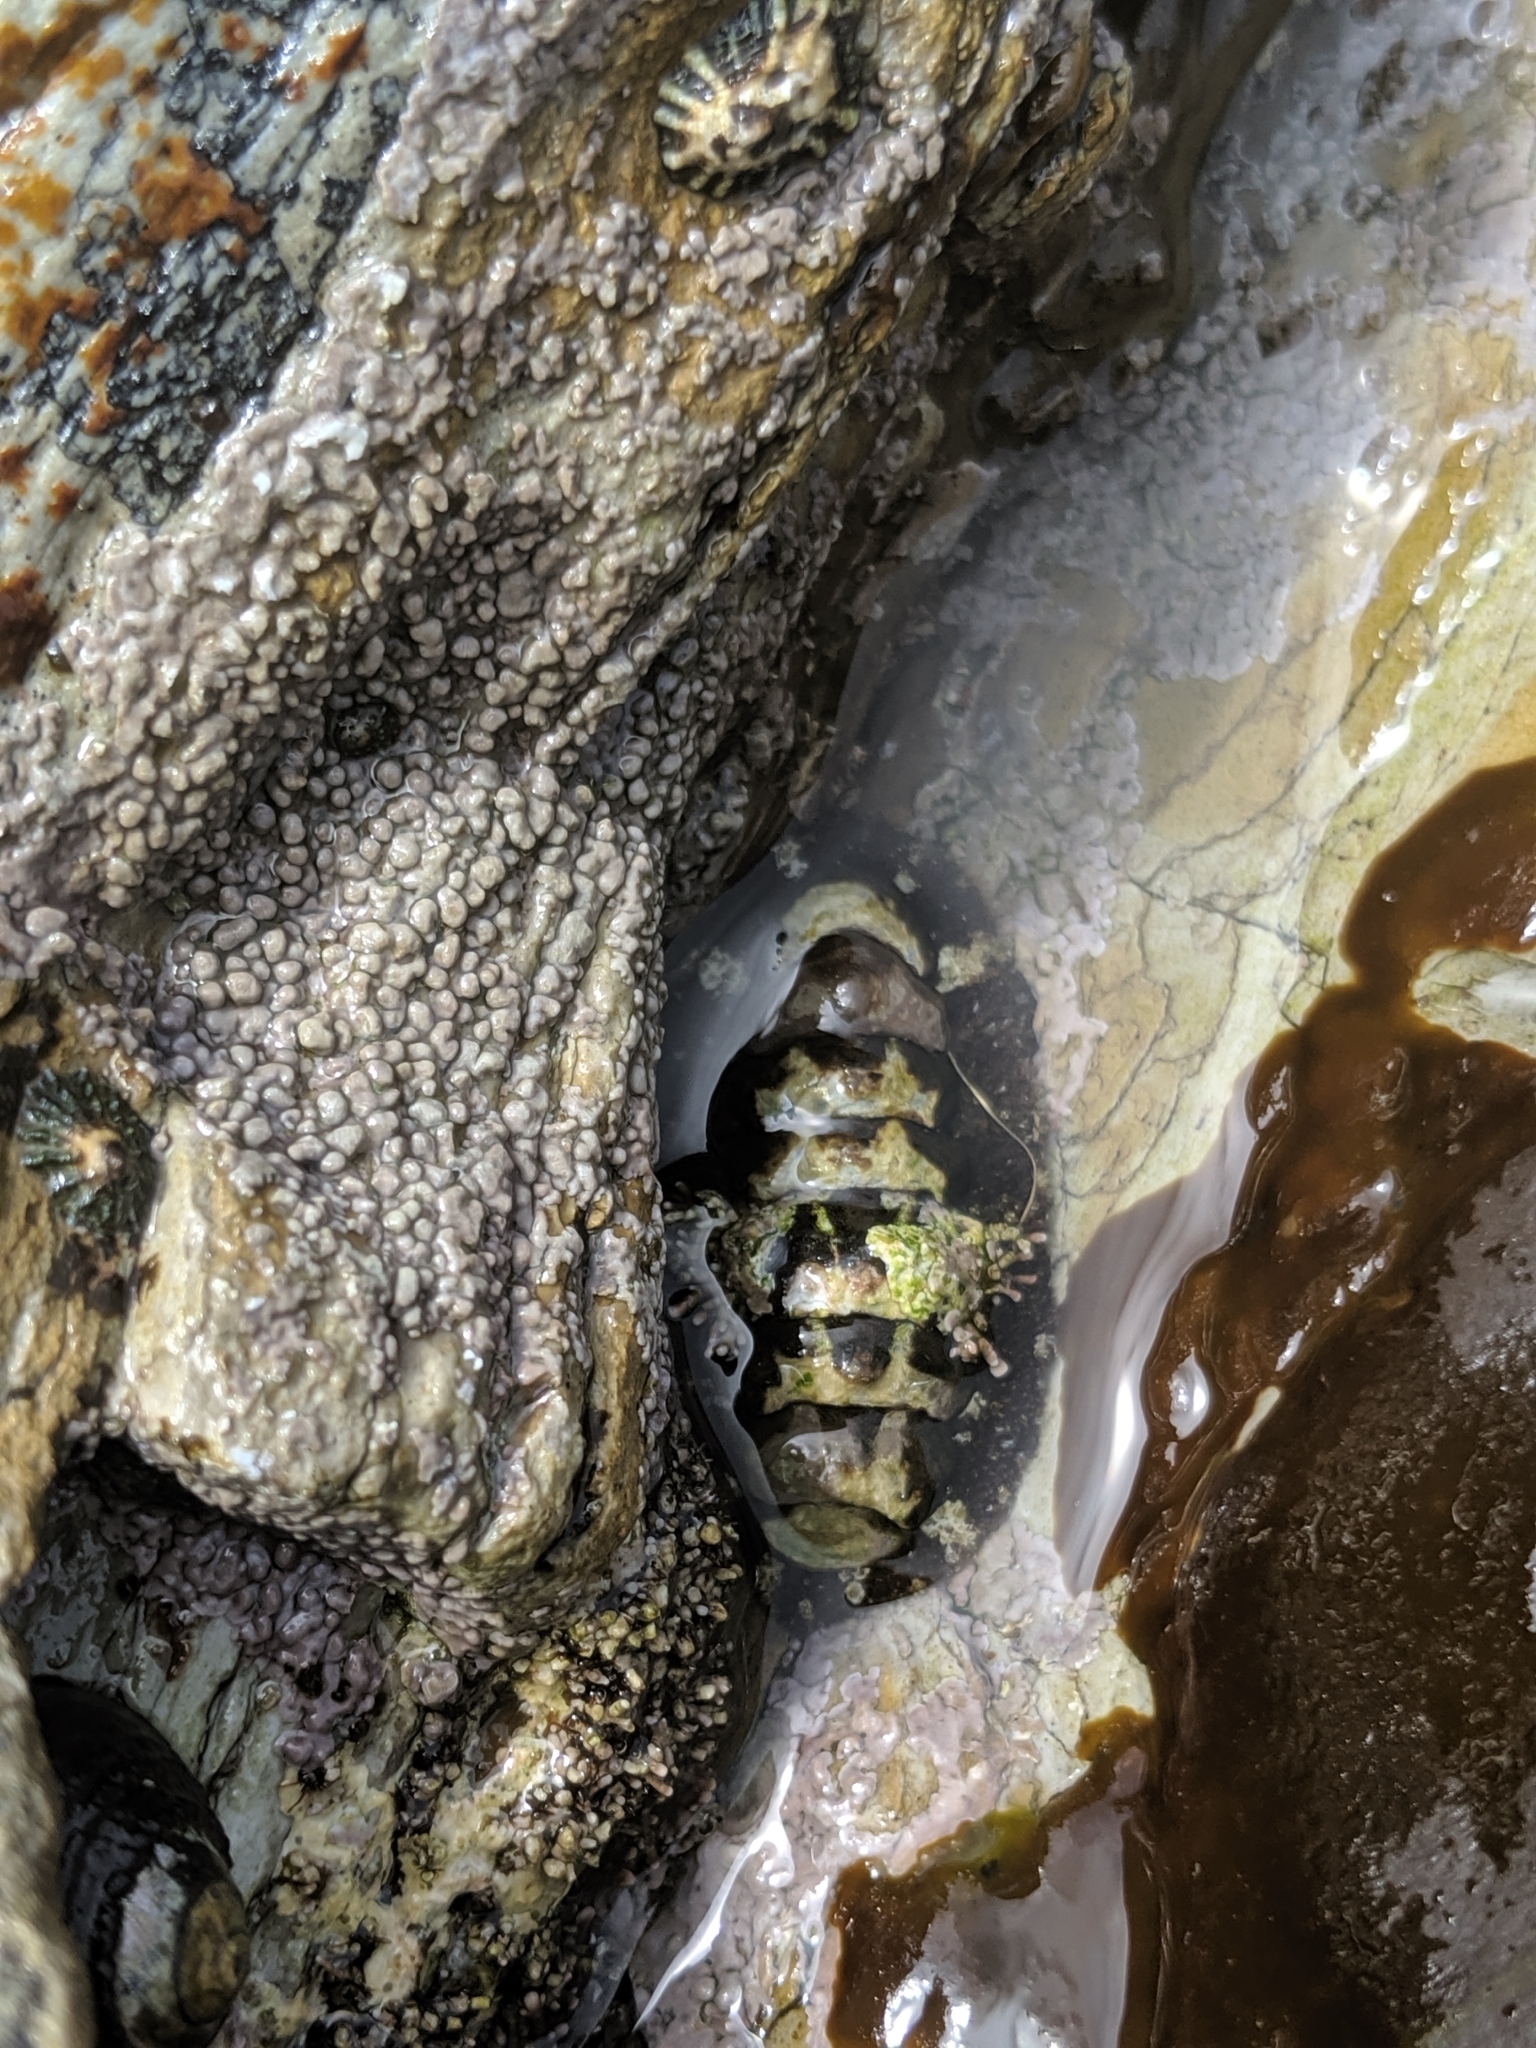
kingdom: Animalia
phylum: Mollusca
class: Polyplacophora
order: Chitonida
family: Tonicellidae
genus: Nuttallina
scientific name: Nuttallina californica
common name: California nuttall chiton
